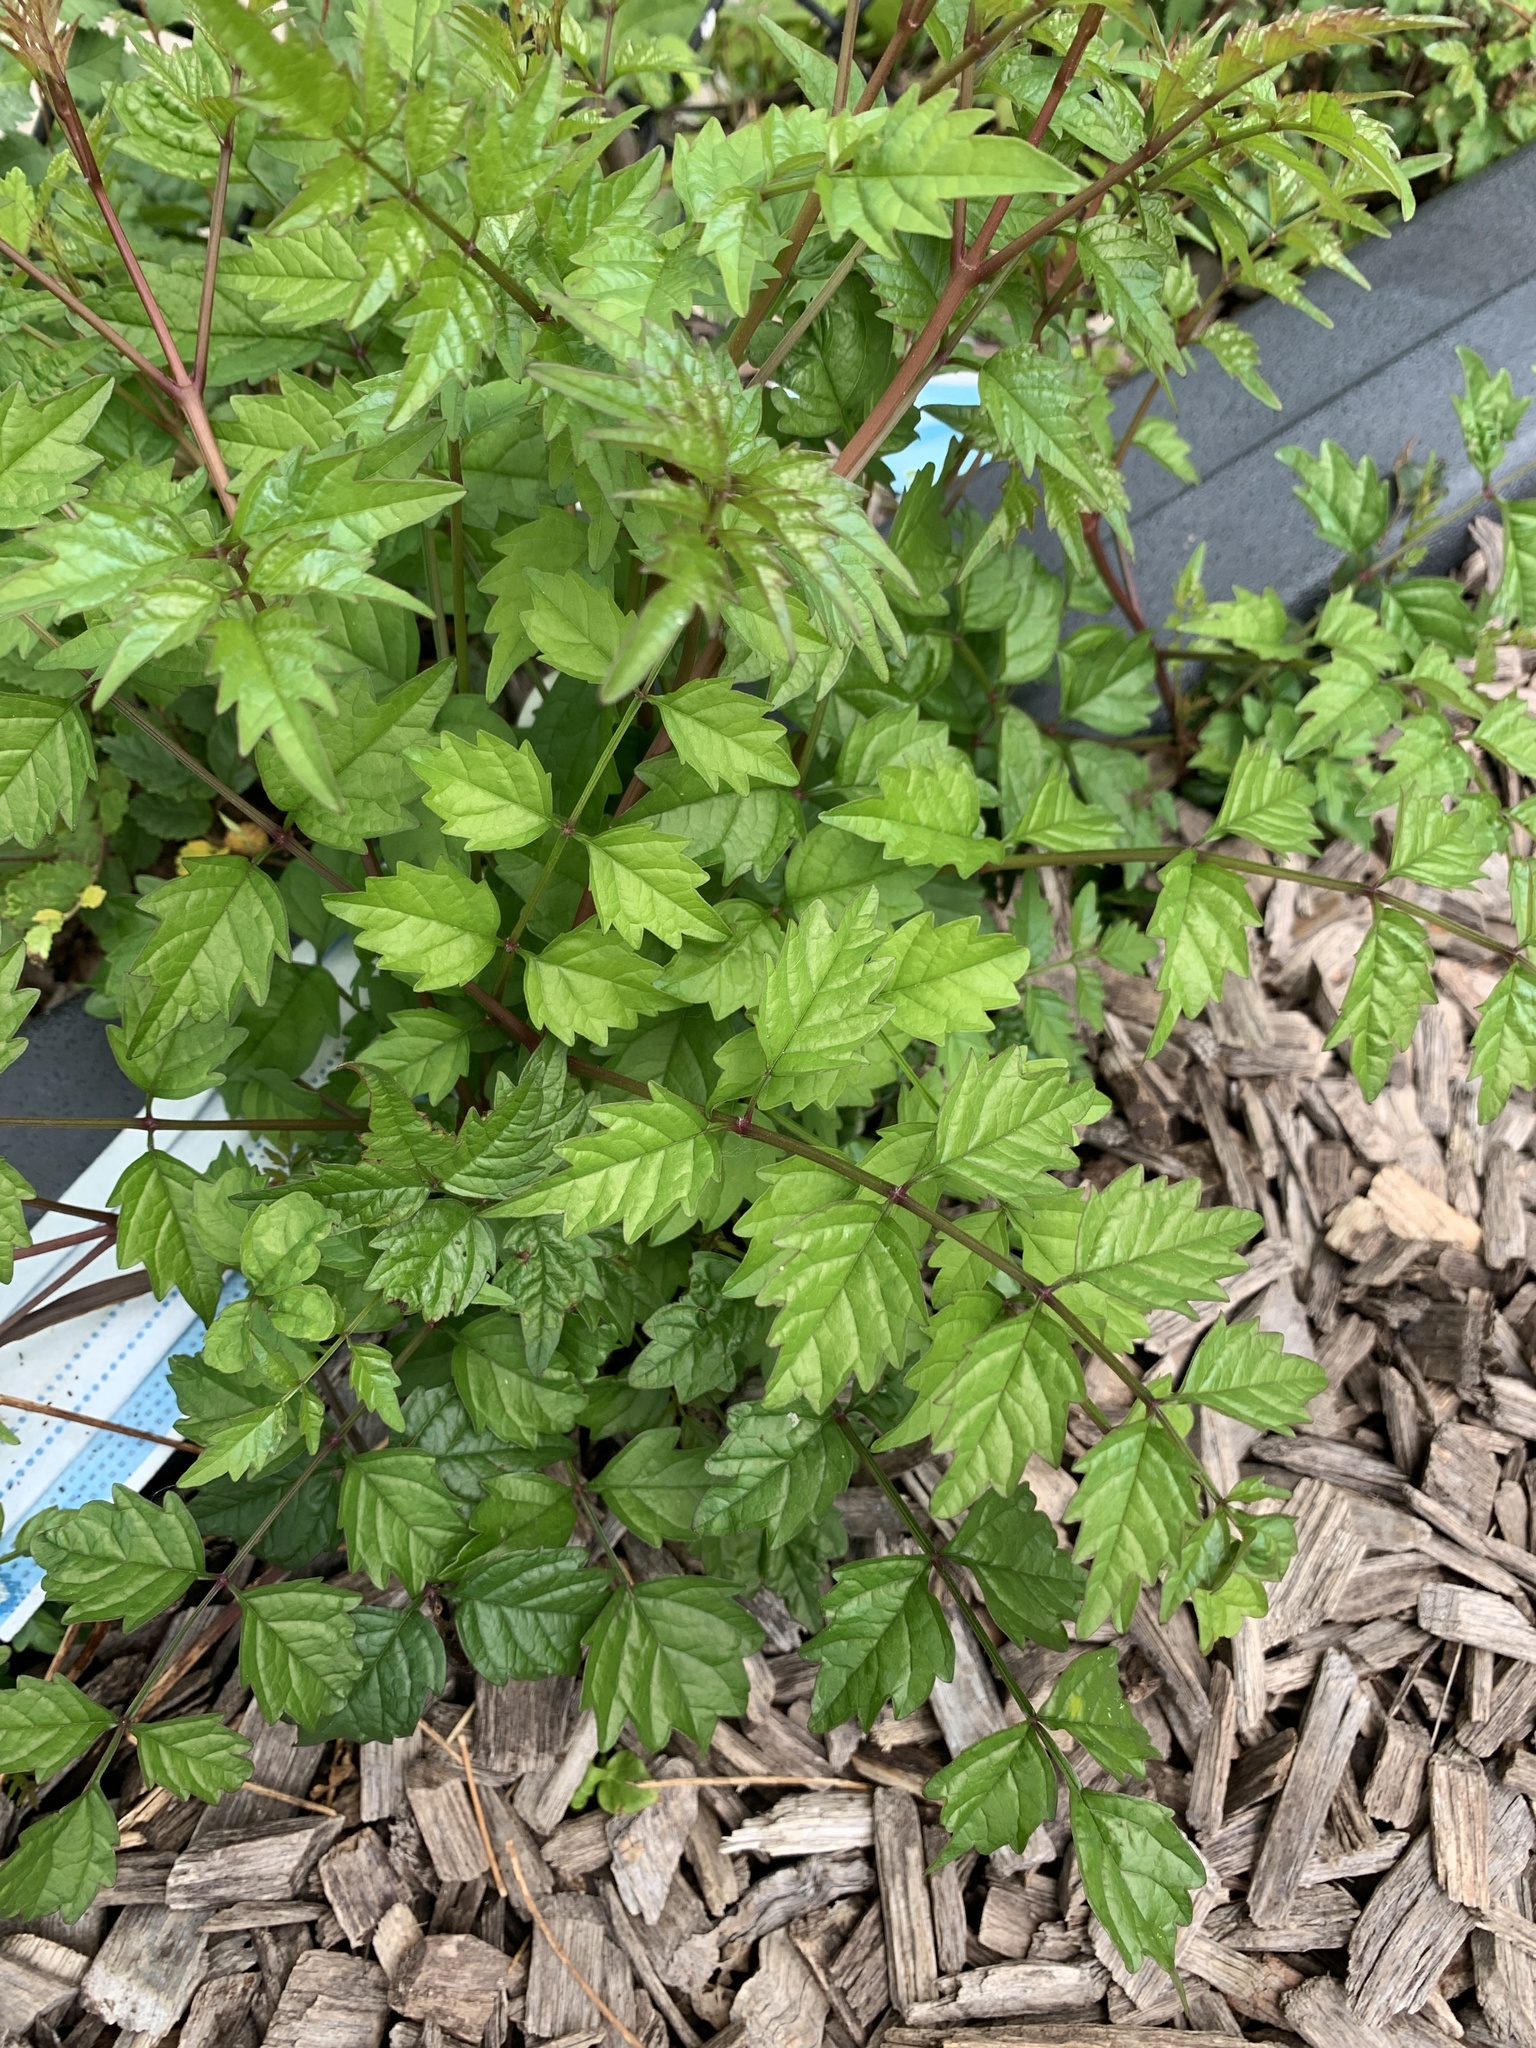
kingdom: Plantae
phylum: Tracheophyta
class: Magnoliopsida
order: Lamiales
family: Bignoniaceae
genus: Campsis
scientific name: Campsis radicans
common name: Trumpet-creeper
